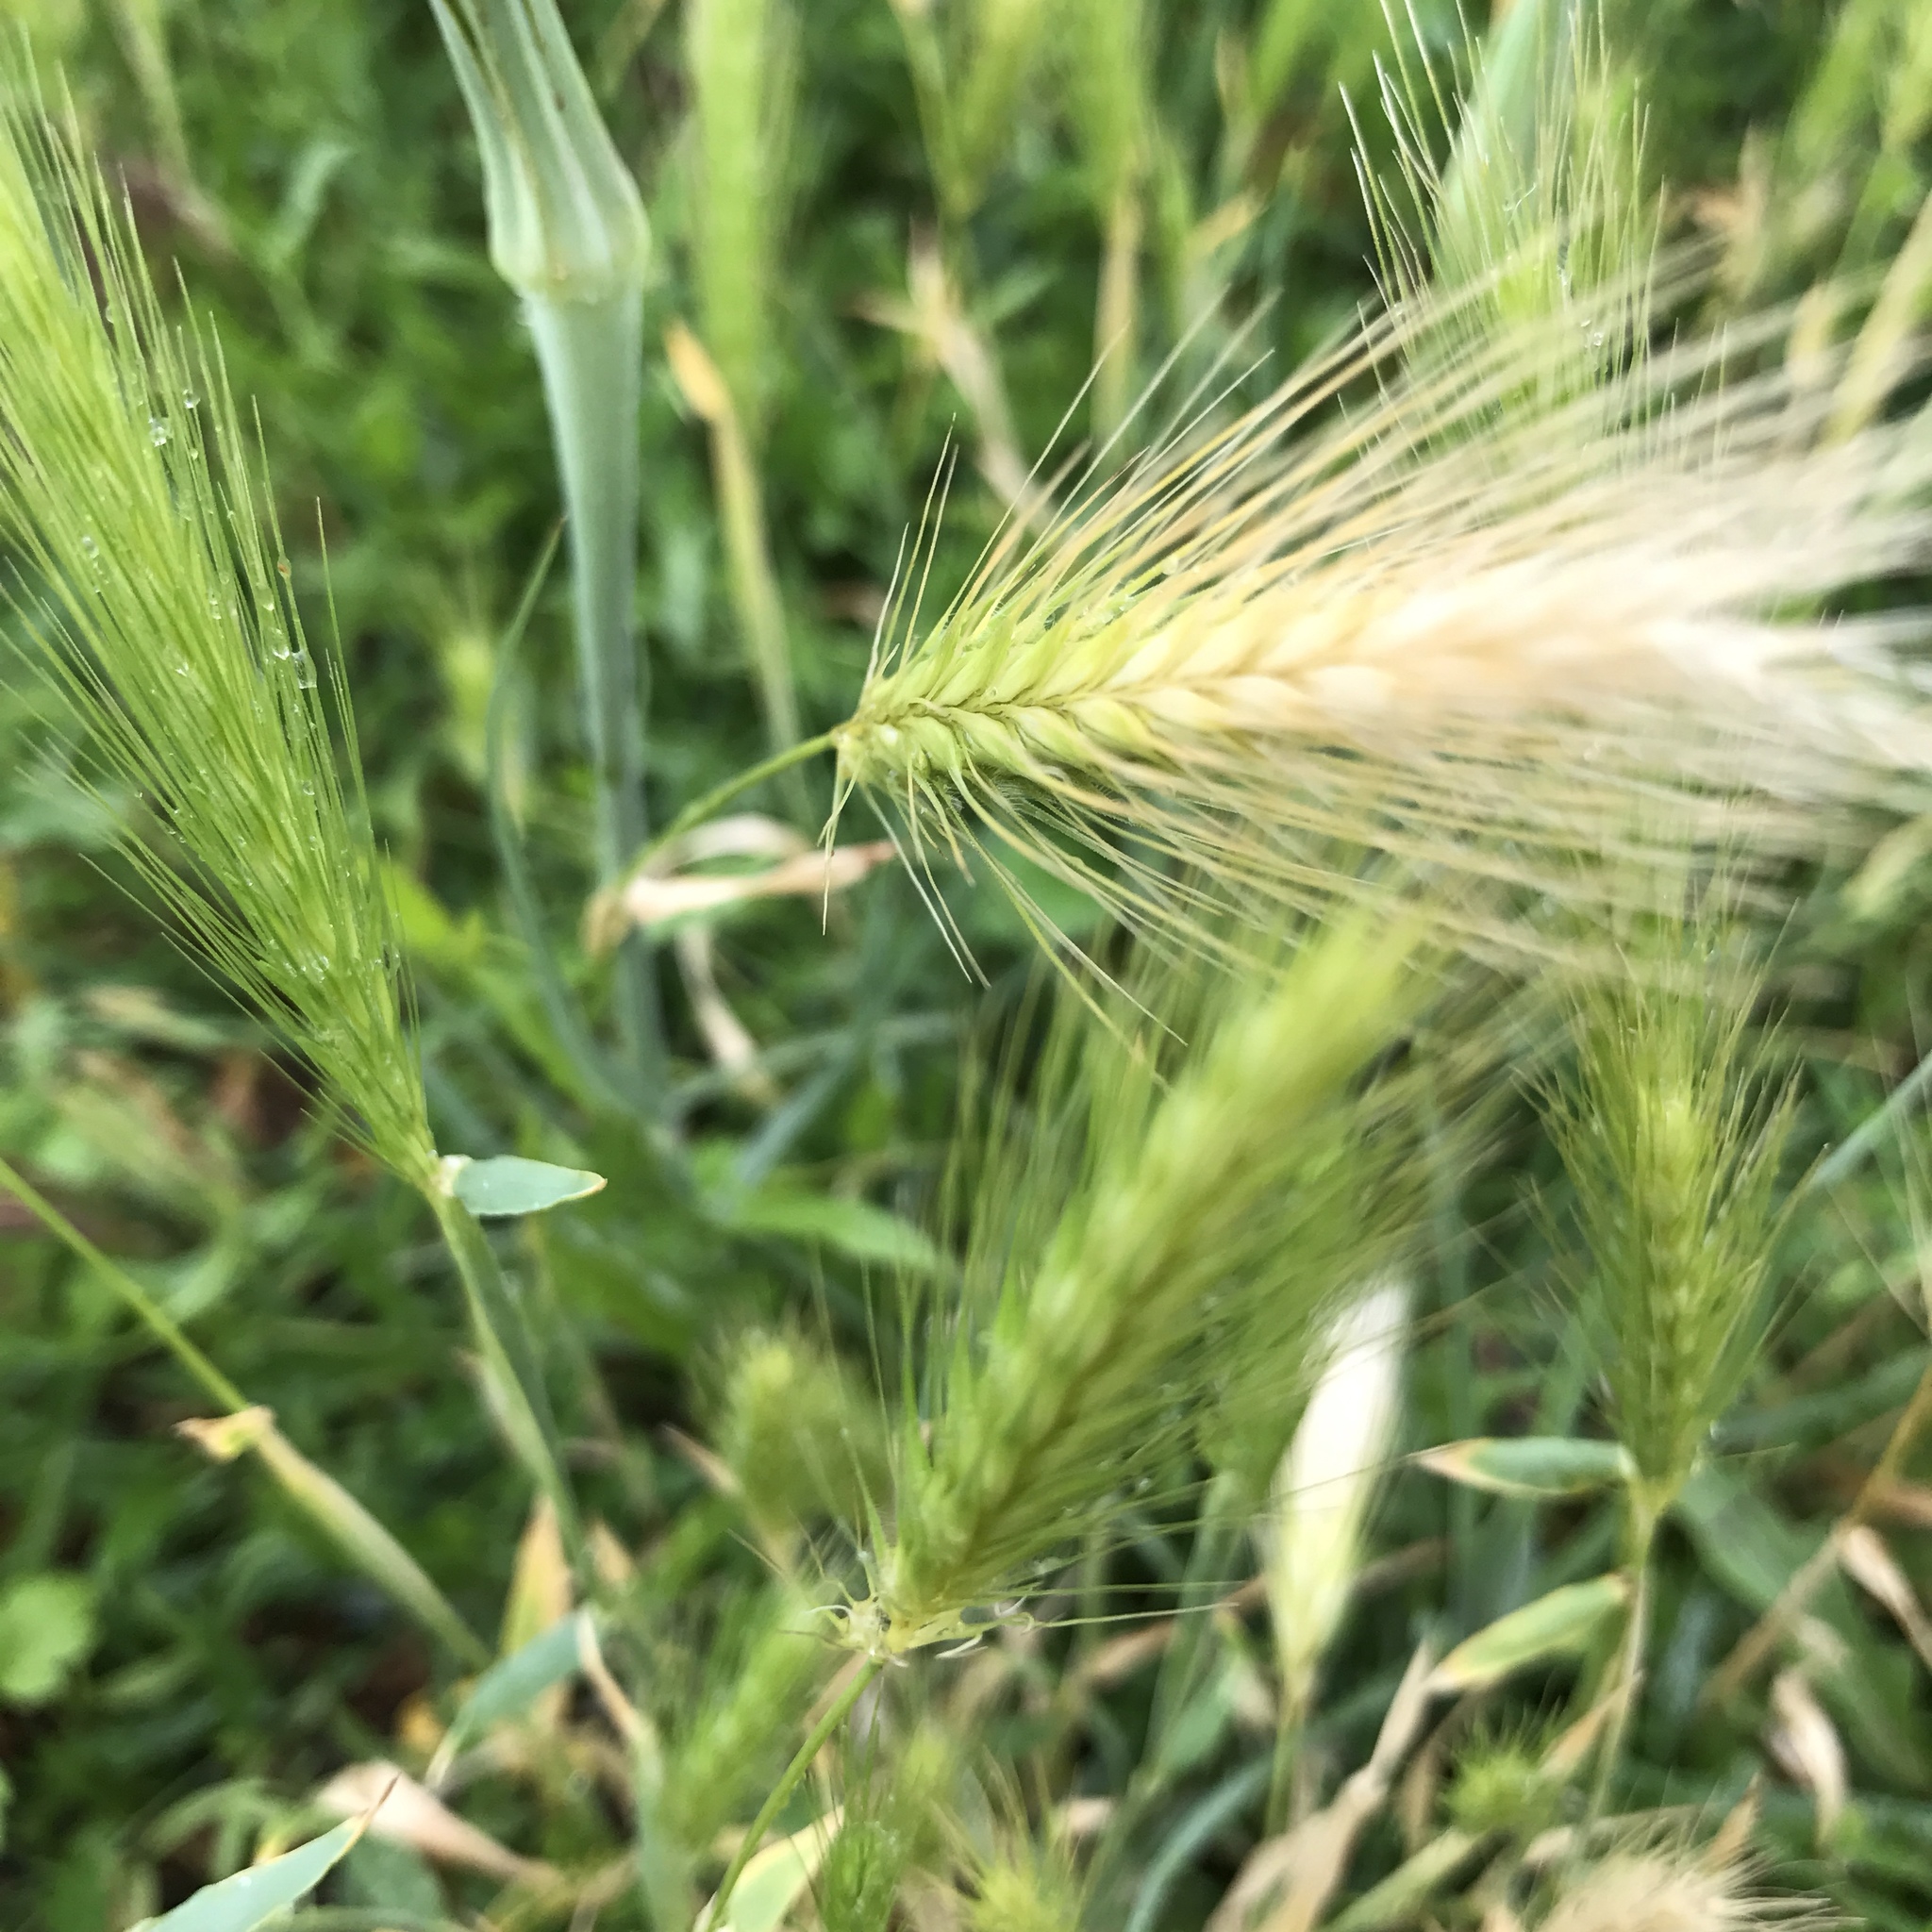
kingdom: Plantae
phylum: Tracheophyta
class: Liliopsida
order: Poales
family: Poaceae
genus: Hordeum
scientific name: Hordeum murinum
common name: Wall barley
